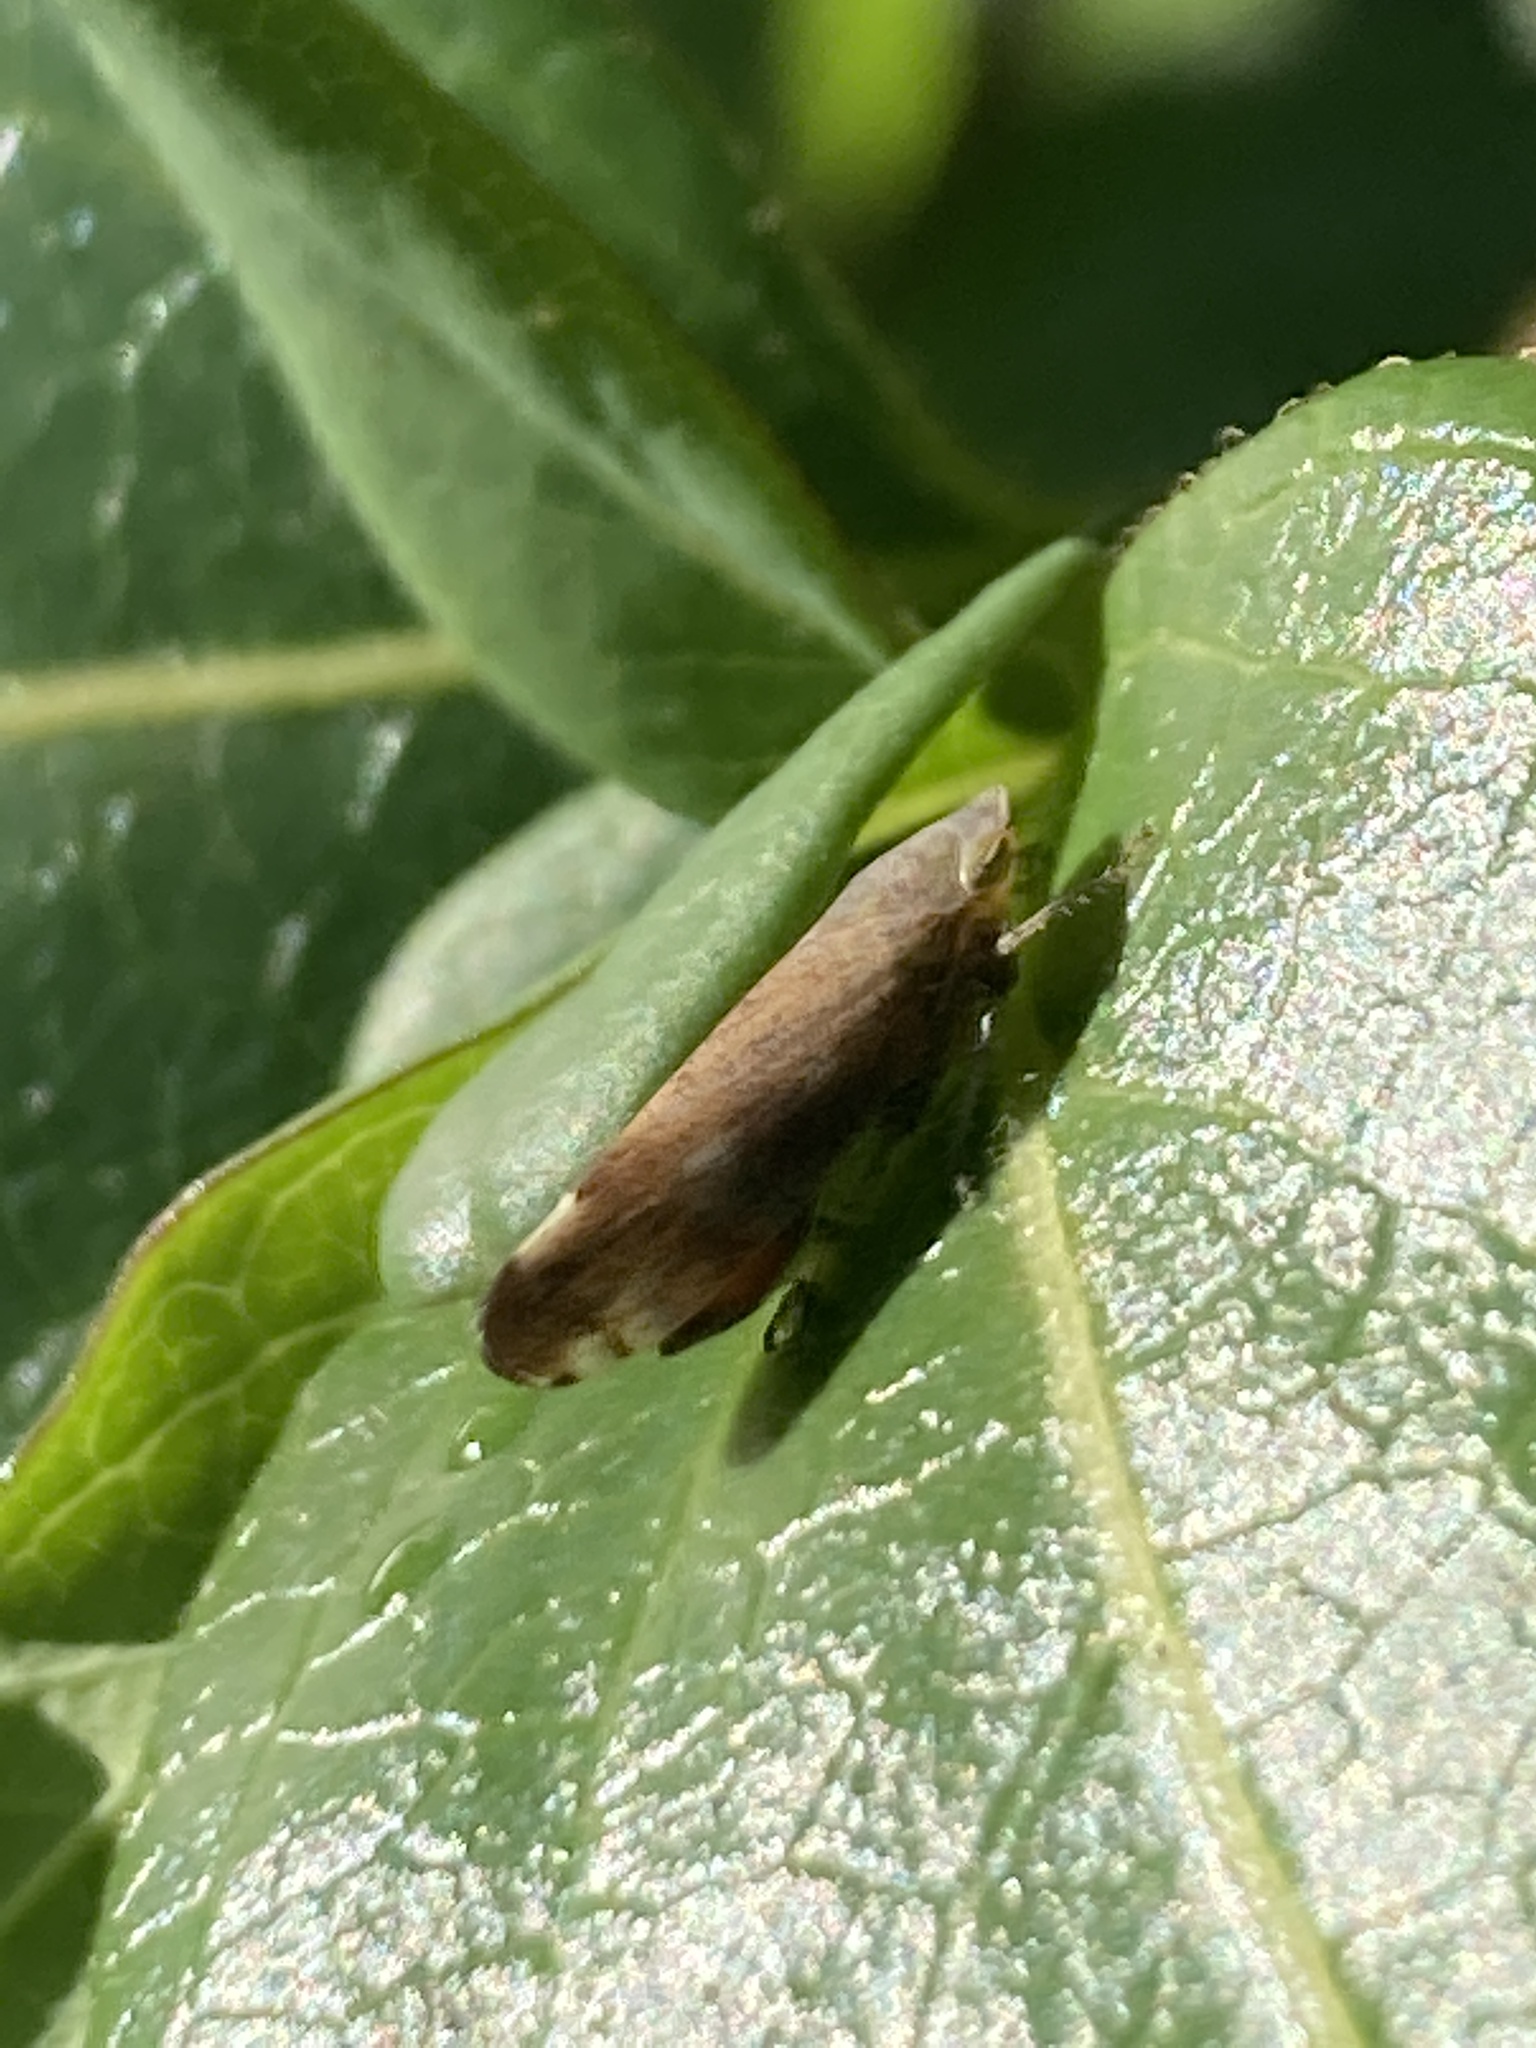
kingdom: Animalia
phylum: Arthropoda
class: Insecta
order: Hemiptera
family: Cicadellidae
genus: Fieberiella
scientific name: Fieberiella florii
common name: Flor’s leafhopper
